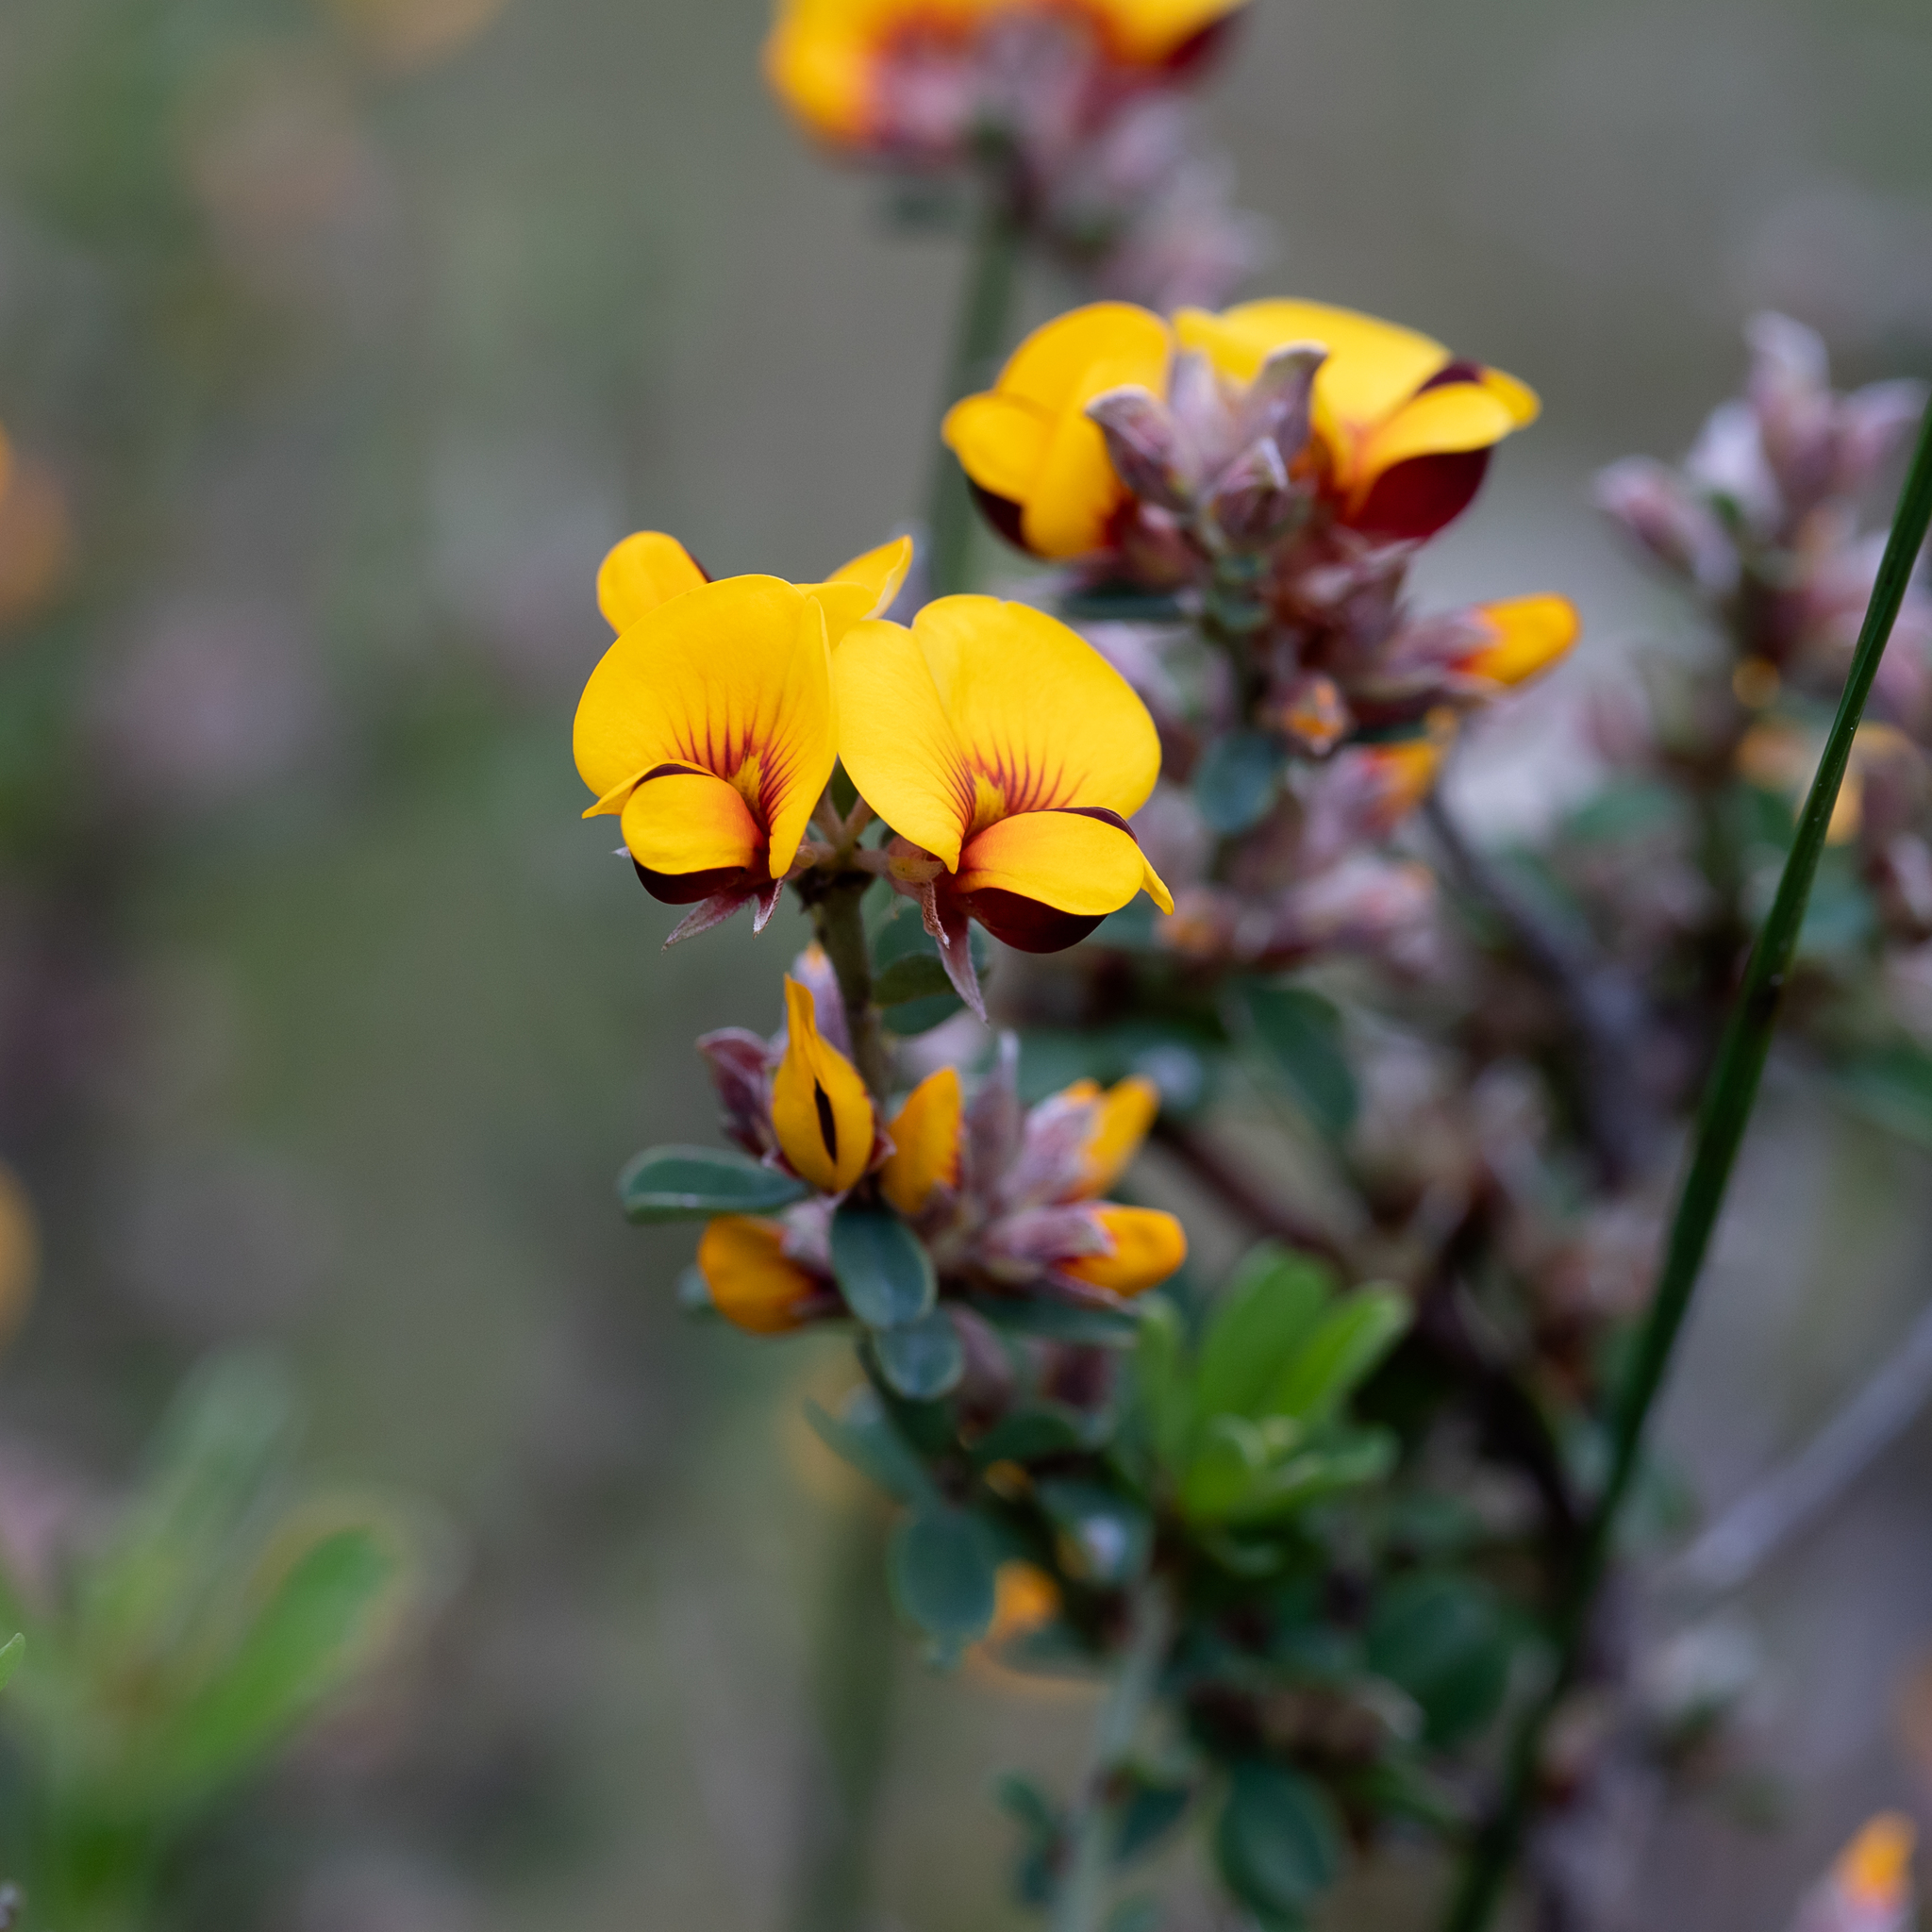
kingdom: Plantae
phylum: Tracheophyta
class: Magnoliopsida
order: Fabales
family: Fabaceae
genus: Pultenaea
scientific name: Pultenaea largiflorens
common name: Twiggy bush-pea
